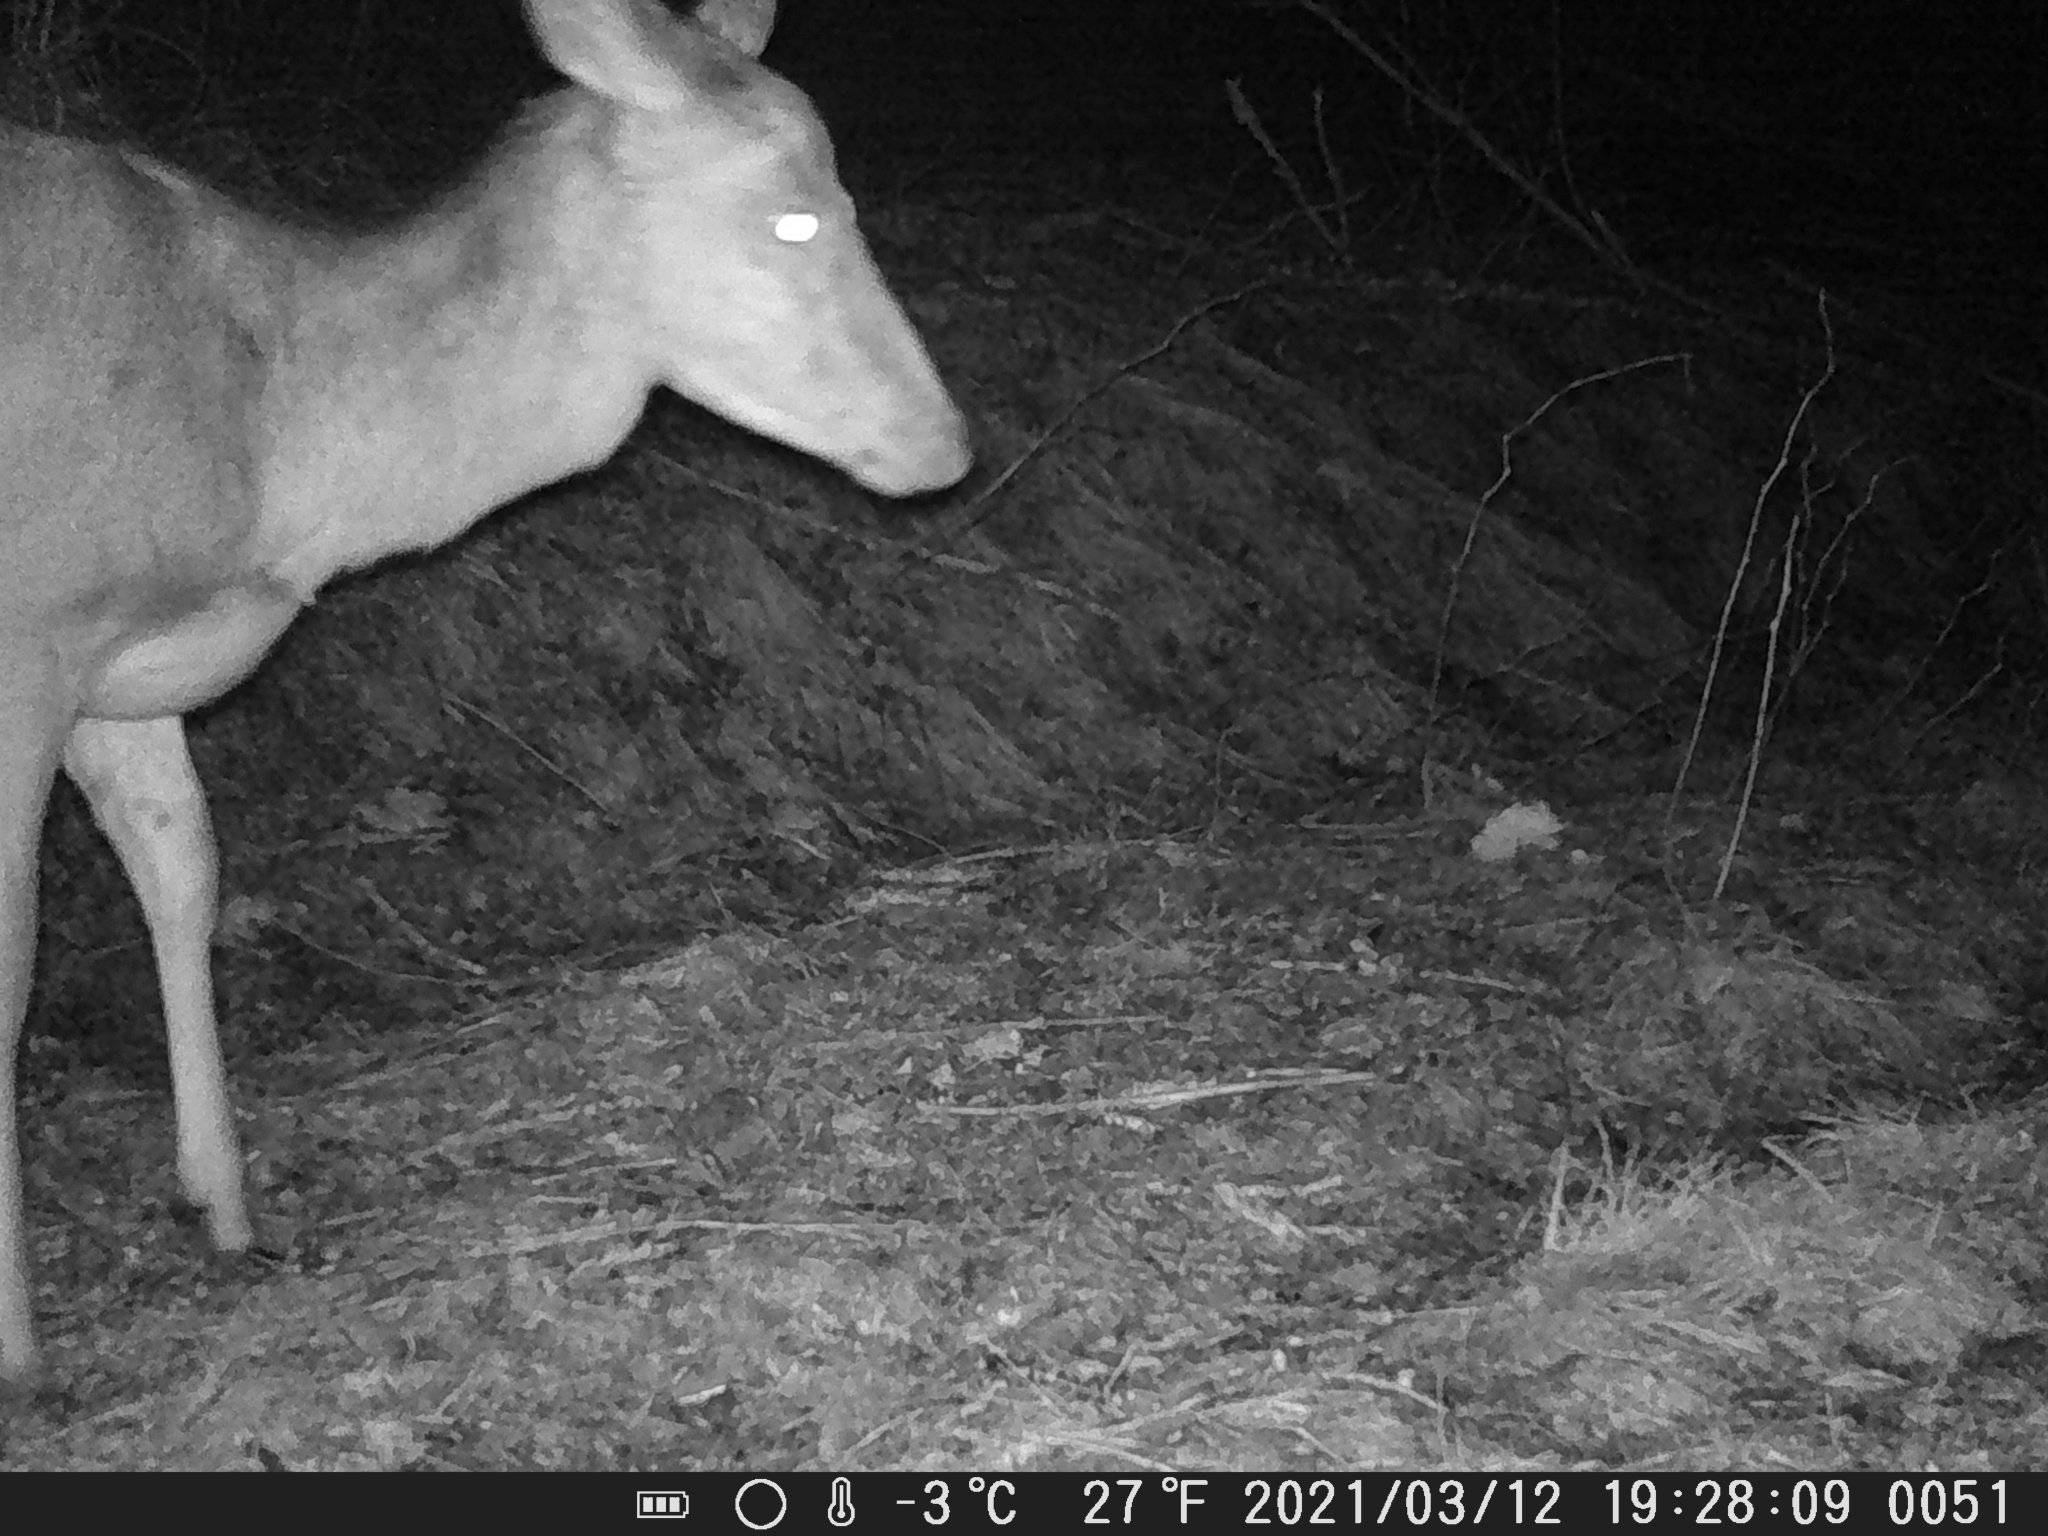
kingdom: Animalia
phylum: Chordata
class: Mammalia
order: Artiodactyla
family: Cervidae
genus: Cervus
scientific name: Cervus elaphus
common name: Red deer
